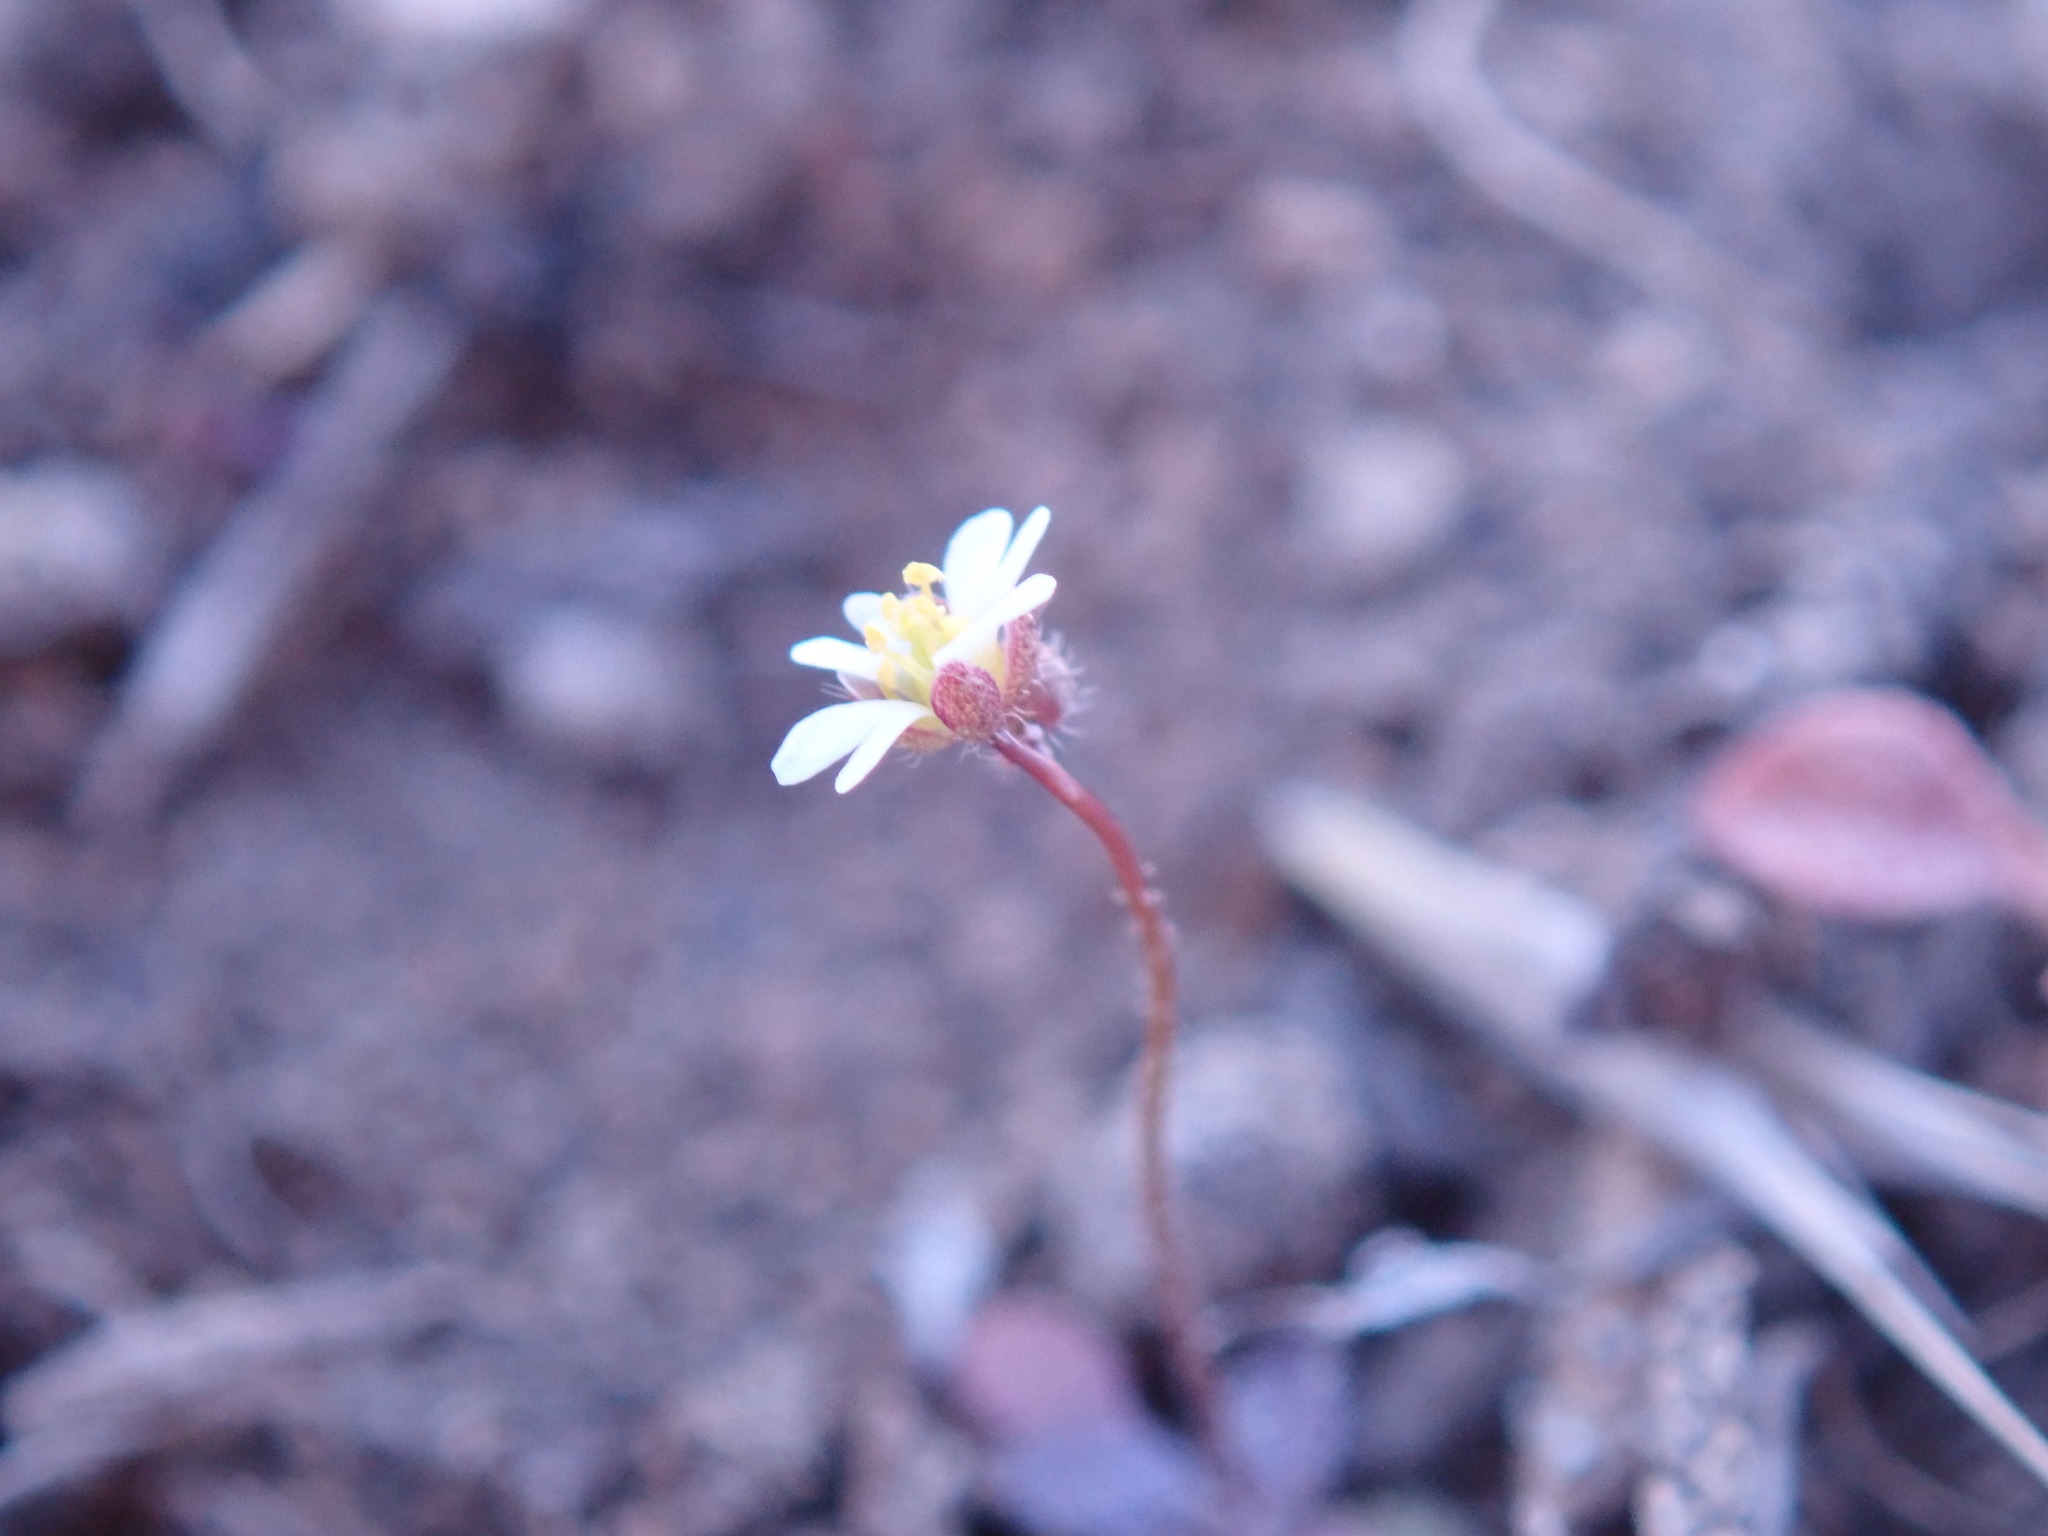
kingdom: Plantae
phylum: Tracheophyta
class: Magnoliopsida
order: Brassicales
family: Brassicaceae
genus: Draba
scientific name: Draba verna
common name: Spring draba
